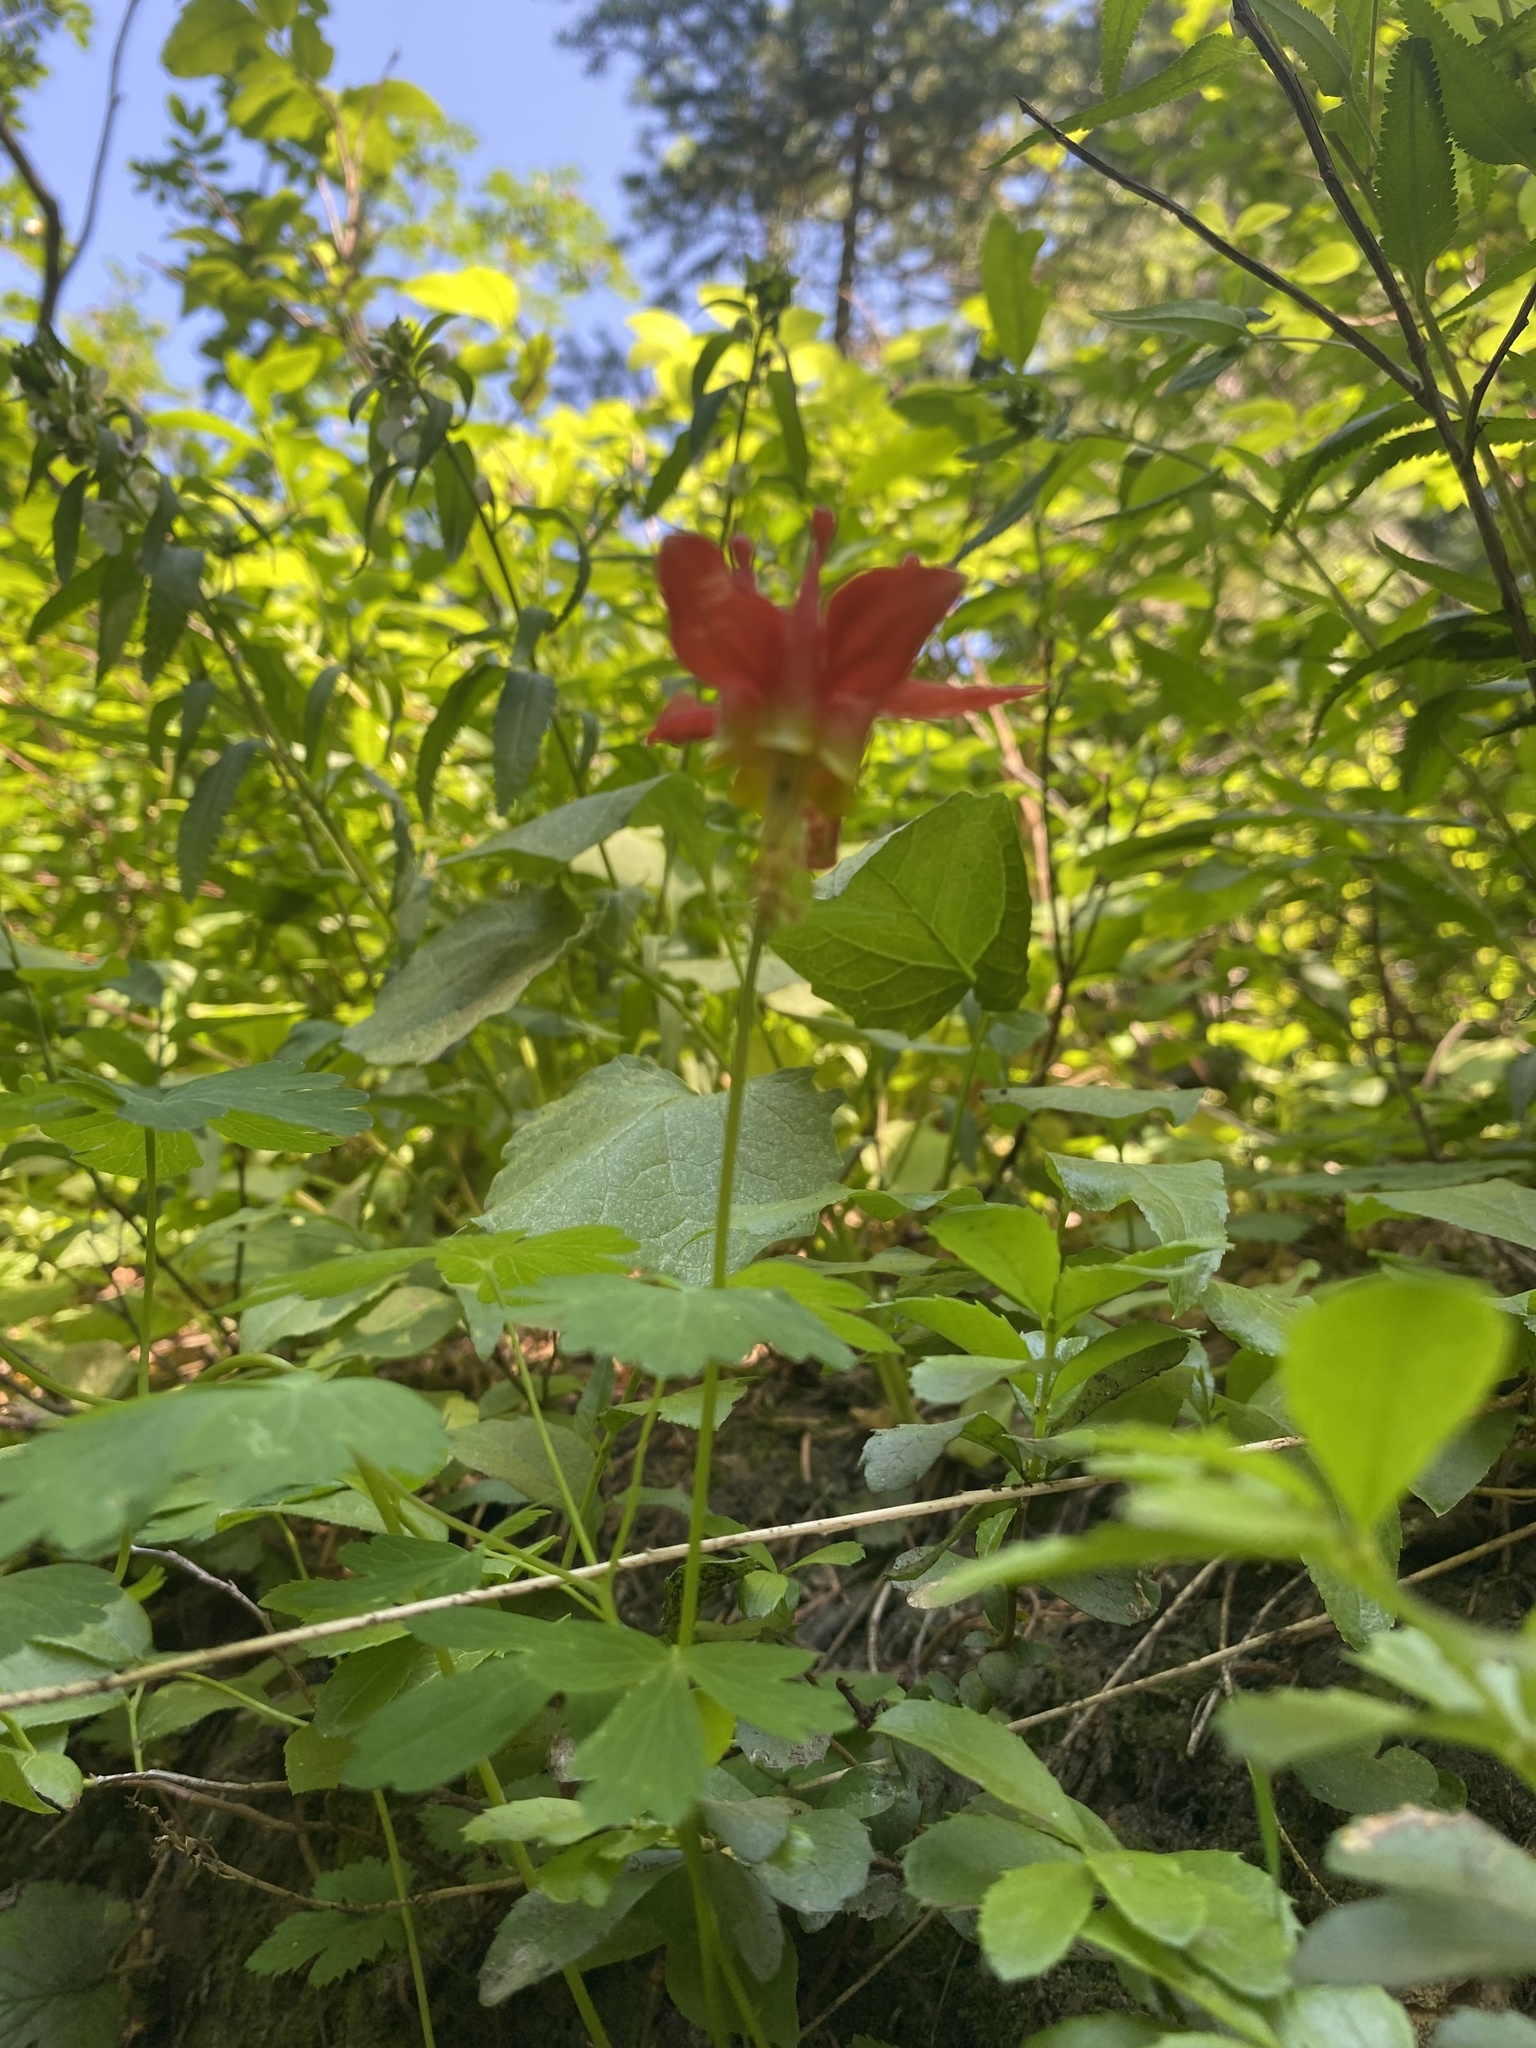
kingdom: Plantae
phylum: Tracheophyta
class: Magnoliopsida
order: Ranunculales
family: Ranunculaceae
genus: Aquilegia
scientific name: Aquilegia formosa
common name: Sitka columbine
